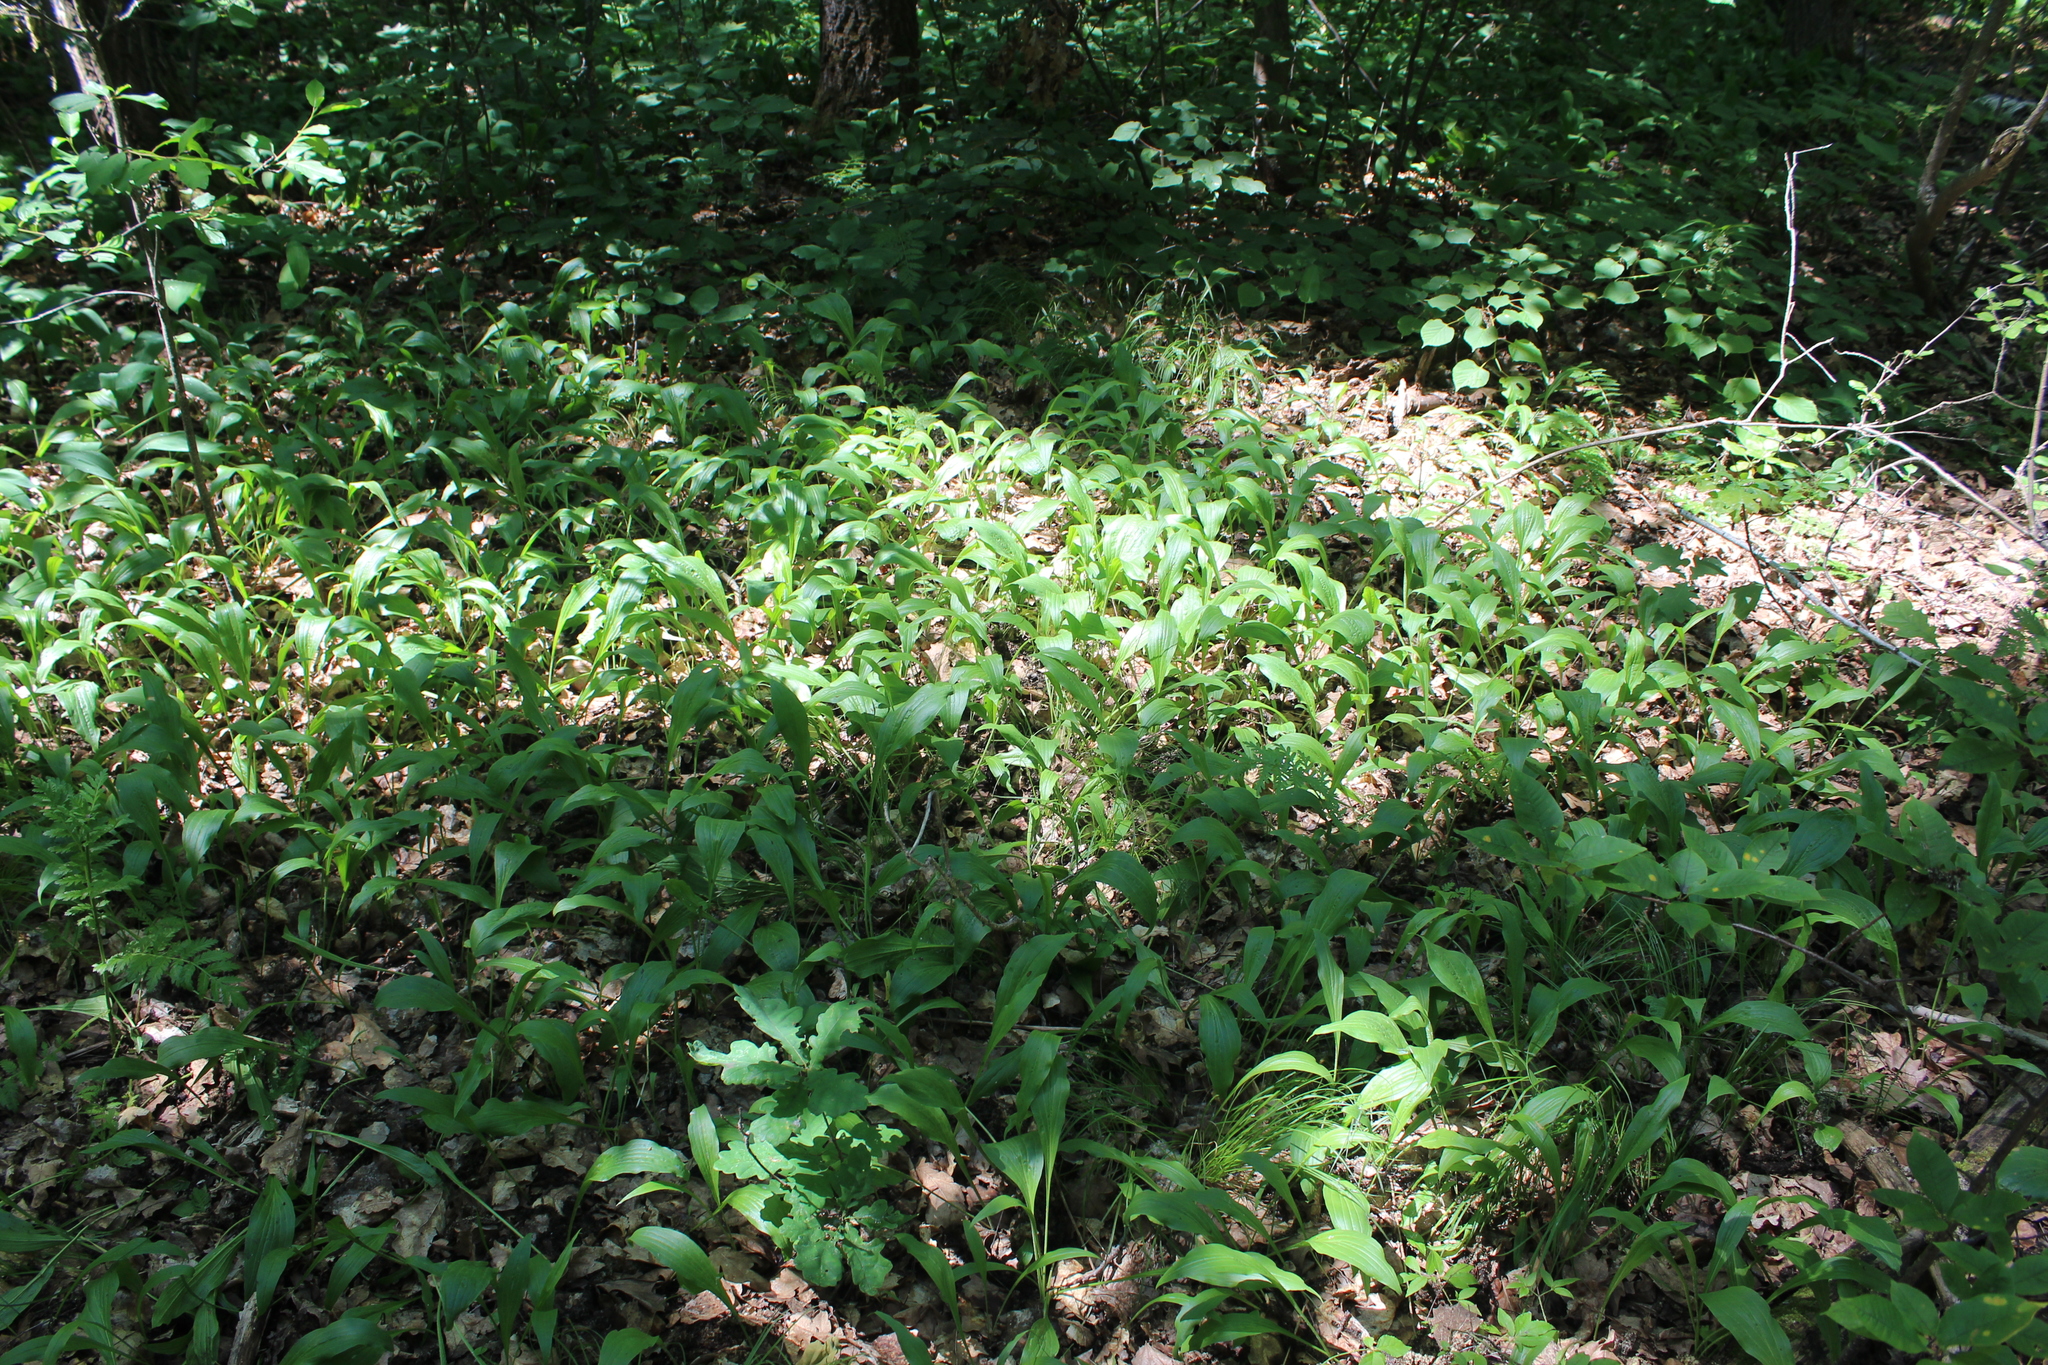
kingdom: Plantae
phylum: Tracheophyta
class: Magnoliopsida
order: Asterales
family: Asteraceae
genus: Scorzonera
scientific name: Scorzonera humilis
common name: Viper's-grass
